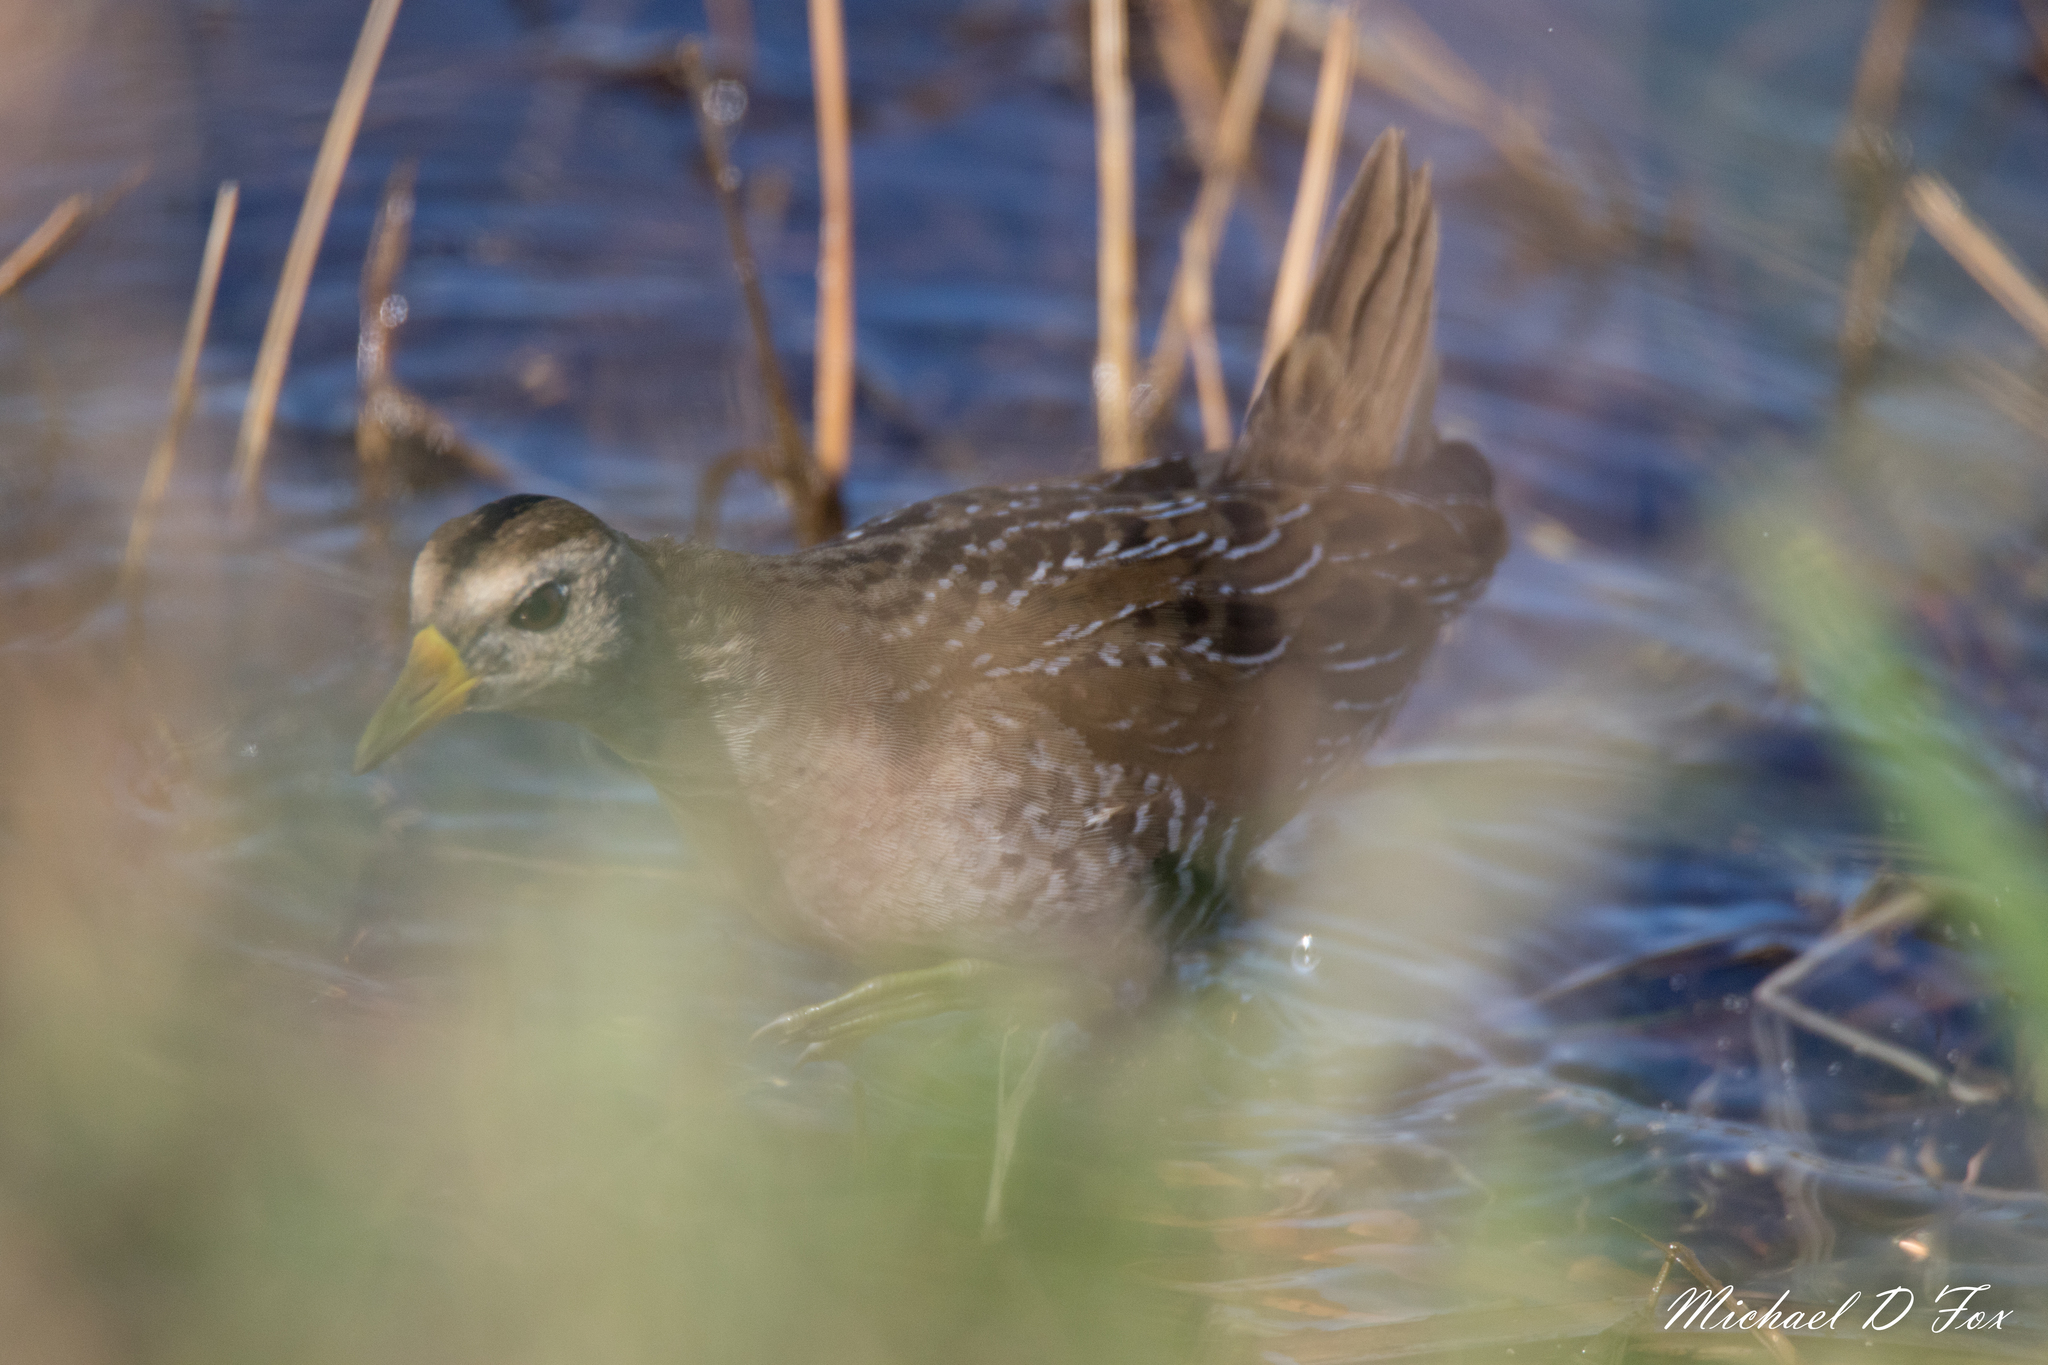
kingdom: Animalia
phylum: Chordata
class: Aves
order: Gruiformes
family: Rallidae
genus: Porzana
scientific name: Porzana carolina
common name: Sora
